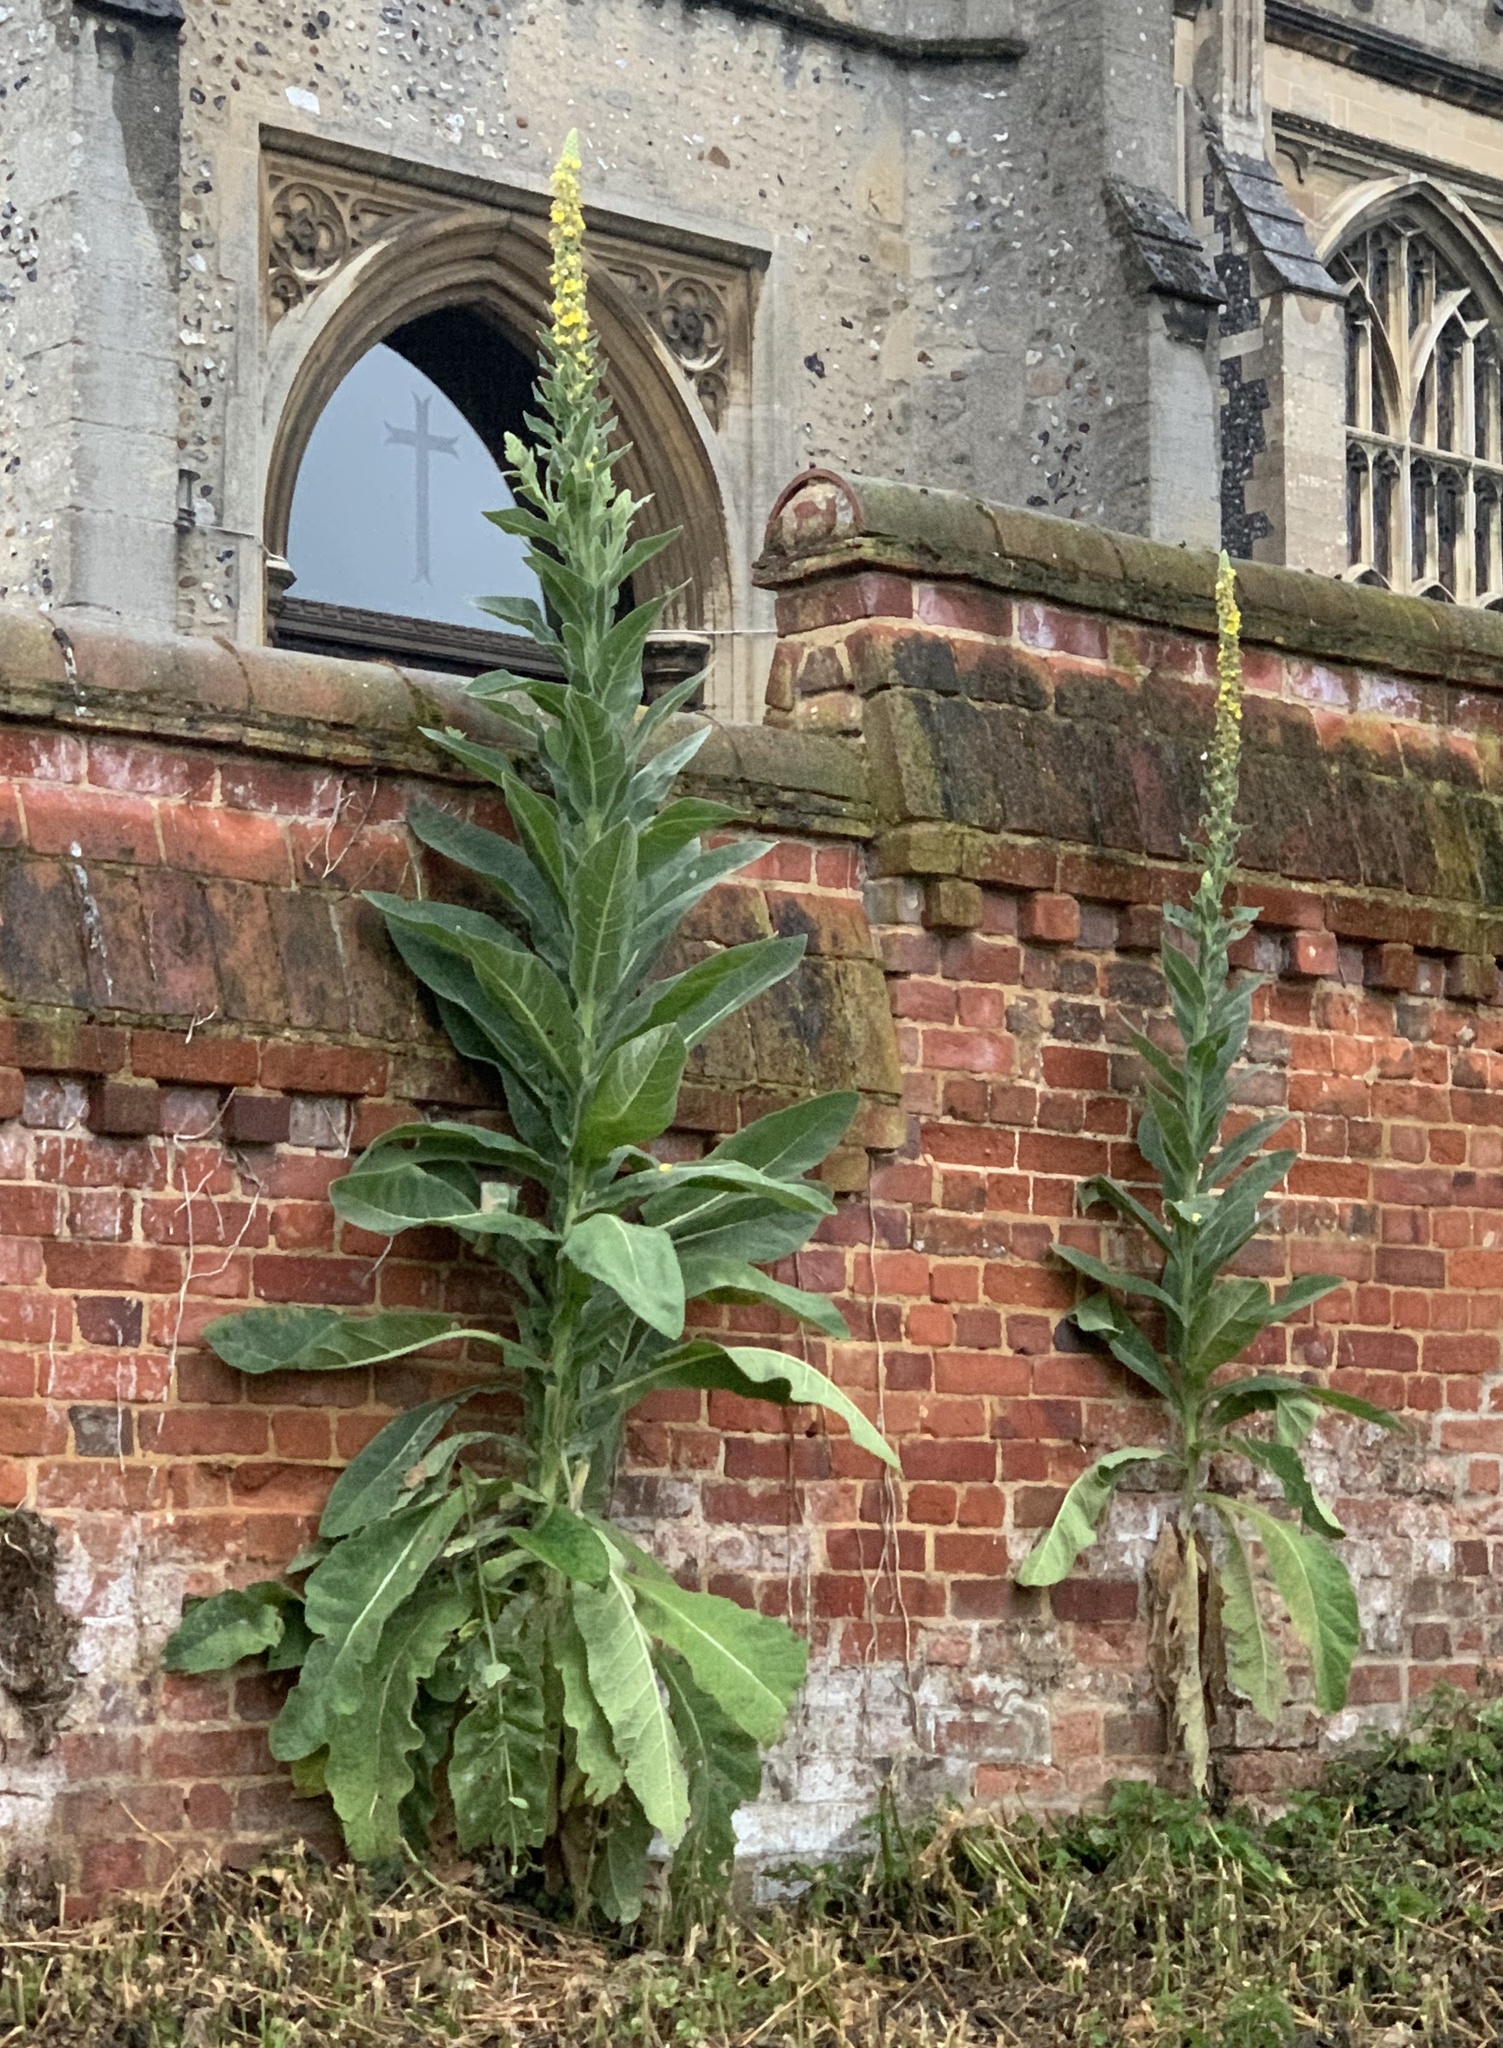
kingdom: Plantae
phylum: Tracheophyta
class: Magnoliopsida
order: Lamiales
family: Scrophulariaceae
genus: Verbascum
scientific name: Verbascum thapsus
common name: Common mullein
